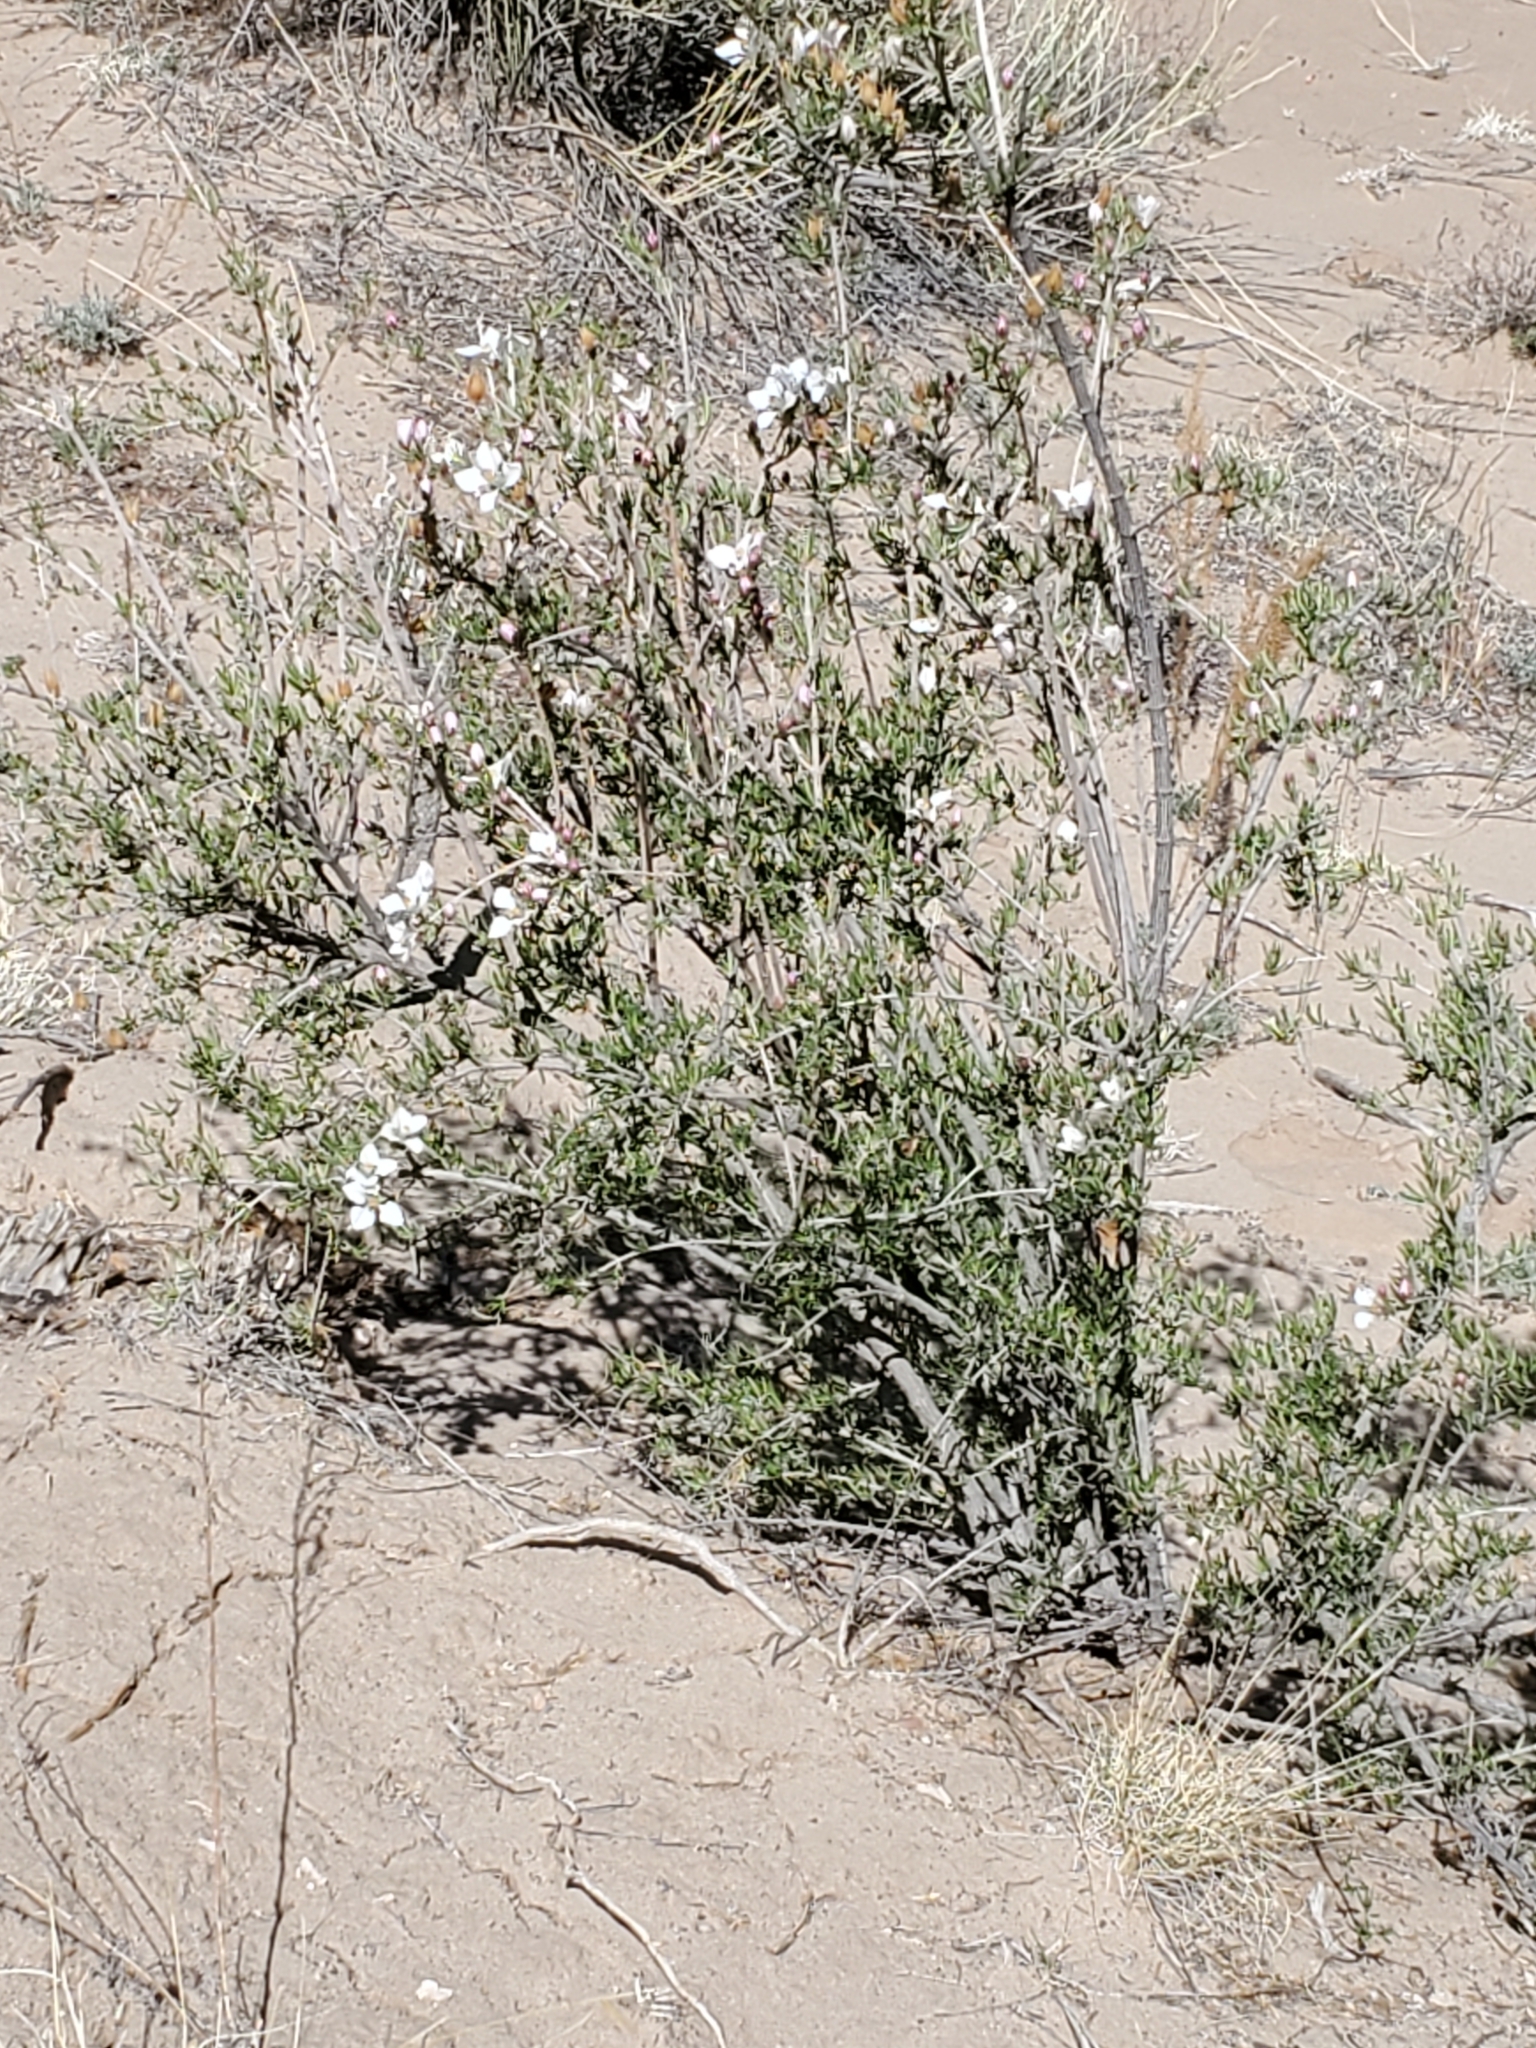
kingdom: Plantae
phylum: Tracheophyta
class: Magnoliopsida
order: Cornales
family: Hydrangeaceae
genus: Fendlera
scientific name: Fendlera rupicola
